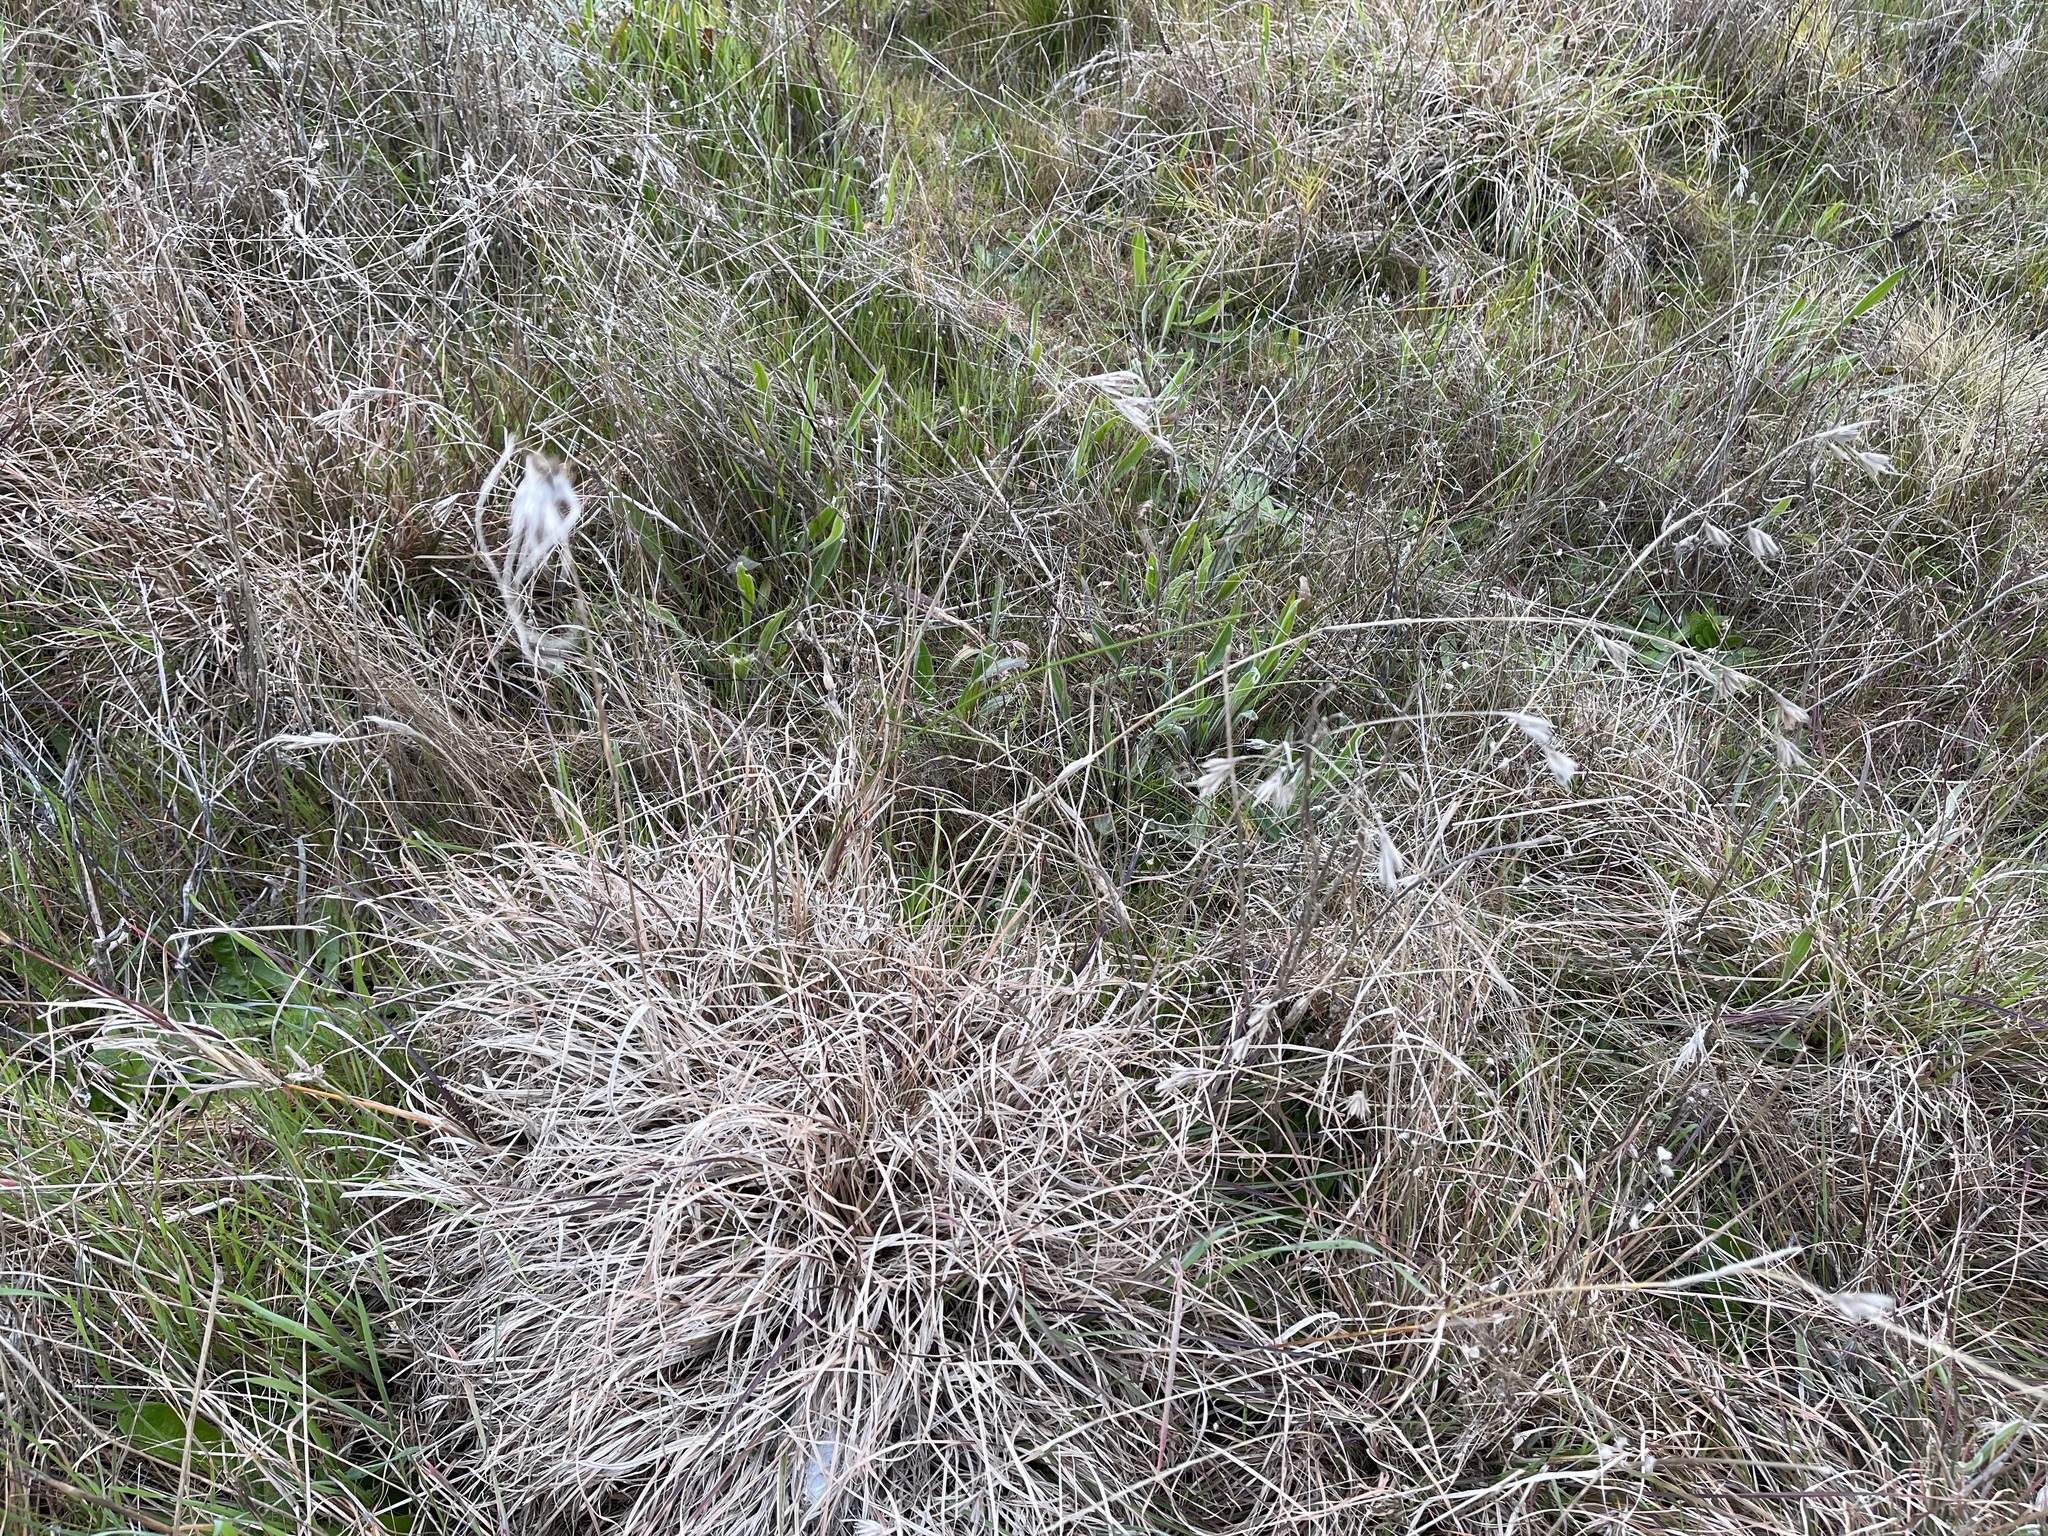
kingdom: Plantae
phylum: Tracheophyta
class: Liliopsida
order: Poales
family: Poaceae
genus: Themeda
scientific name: Themeda triandra
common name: Kangaroo grass
